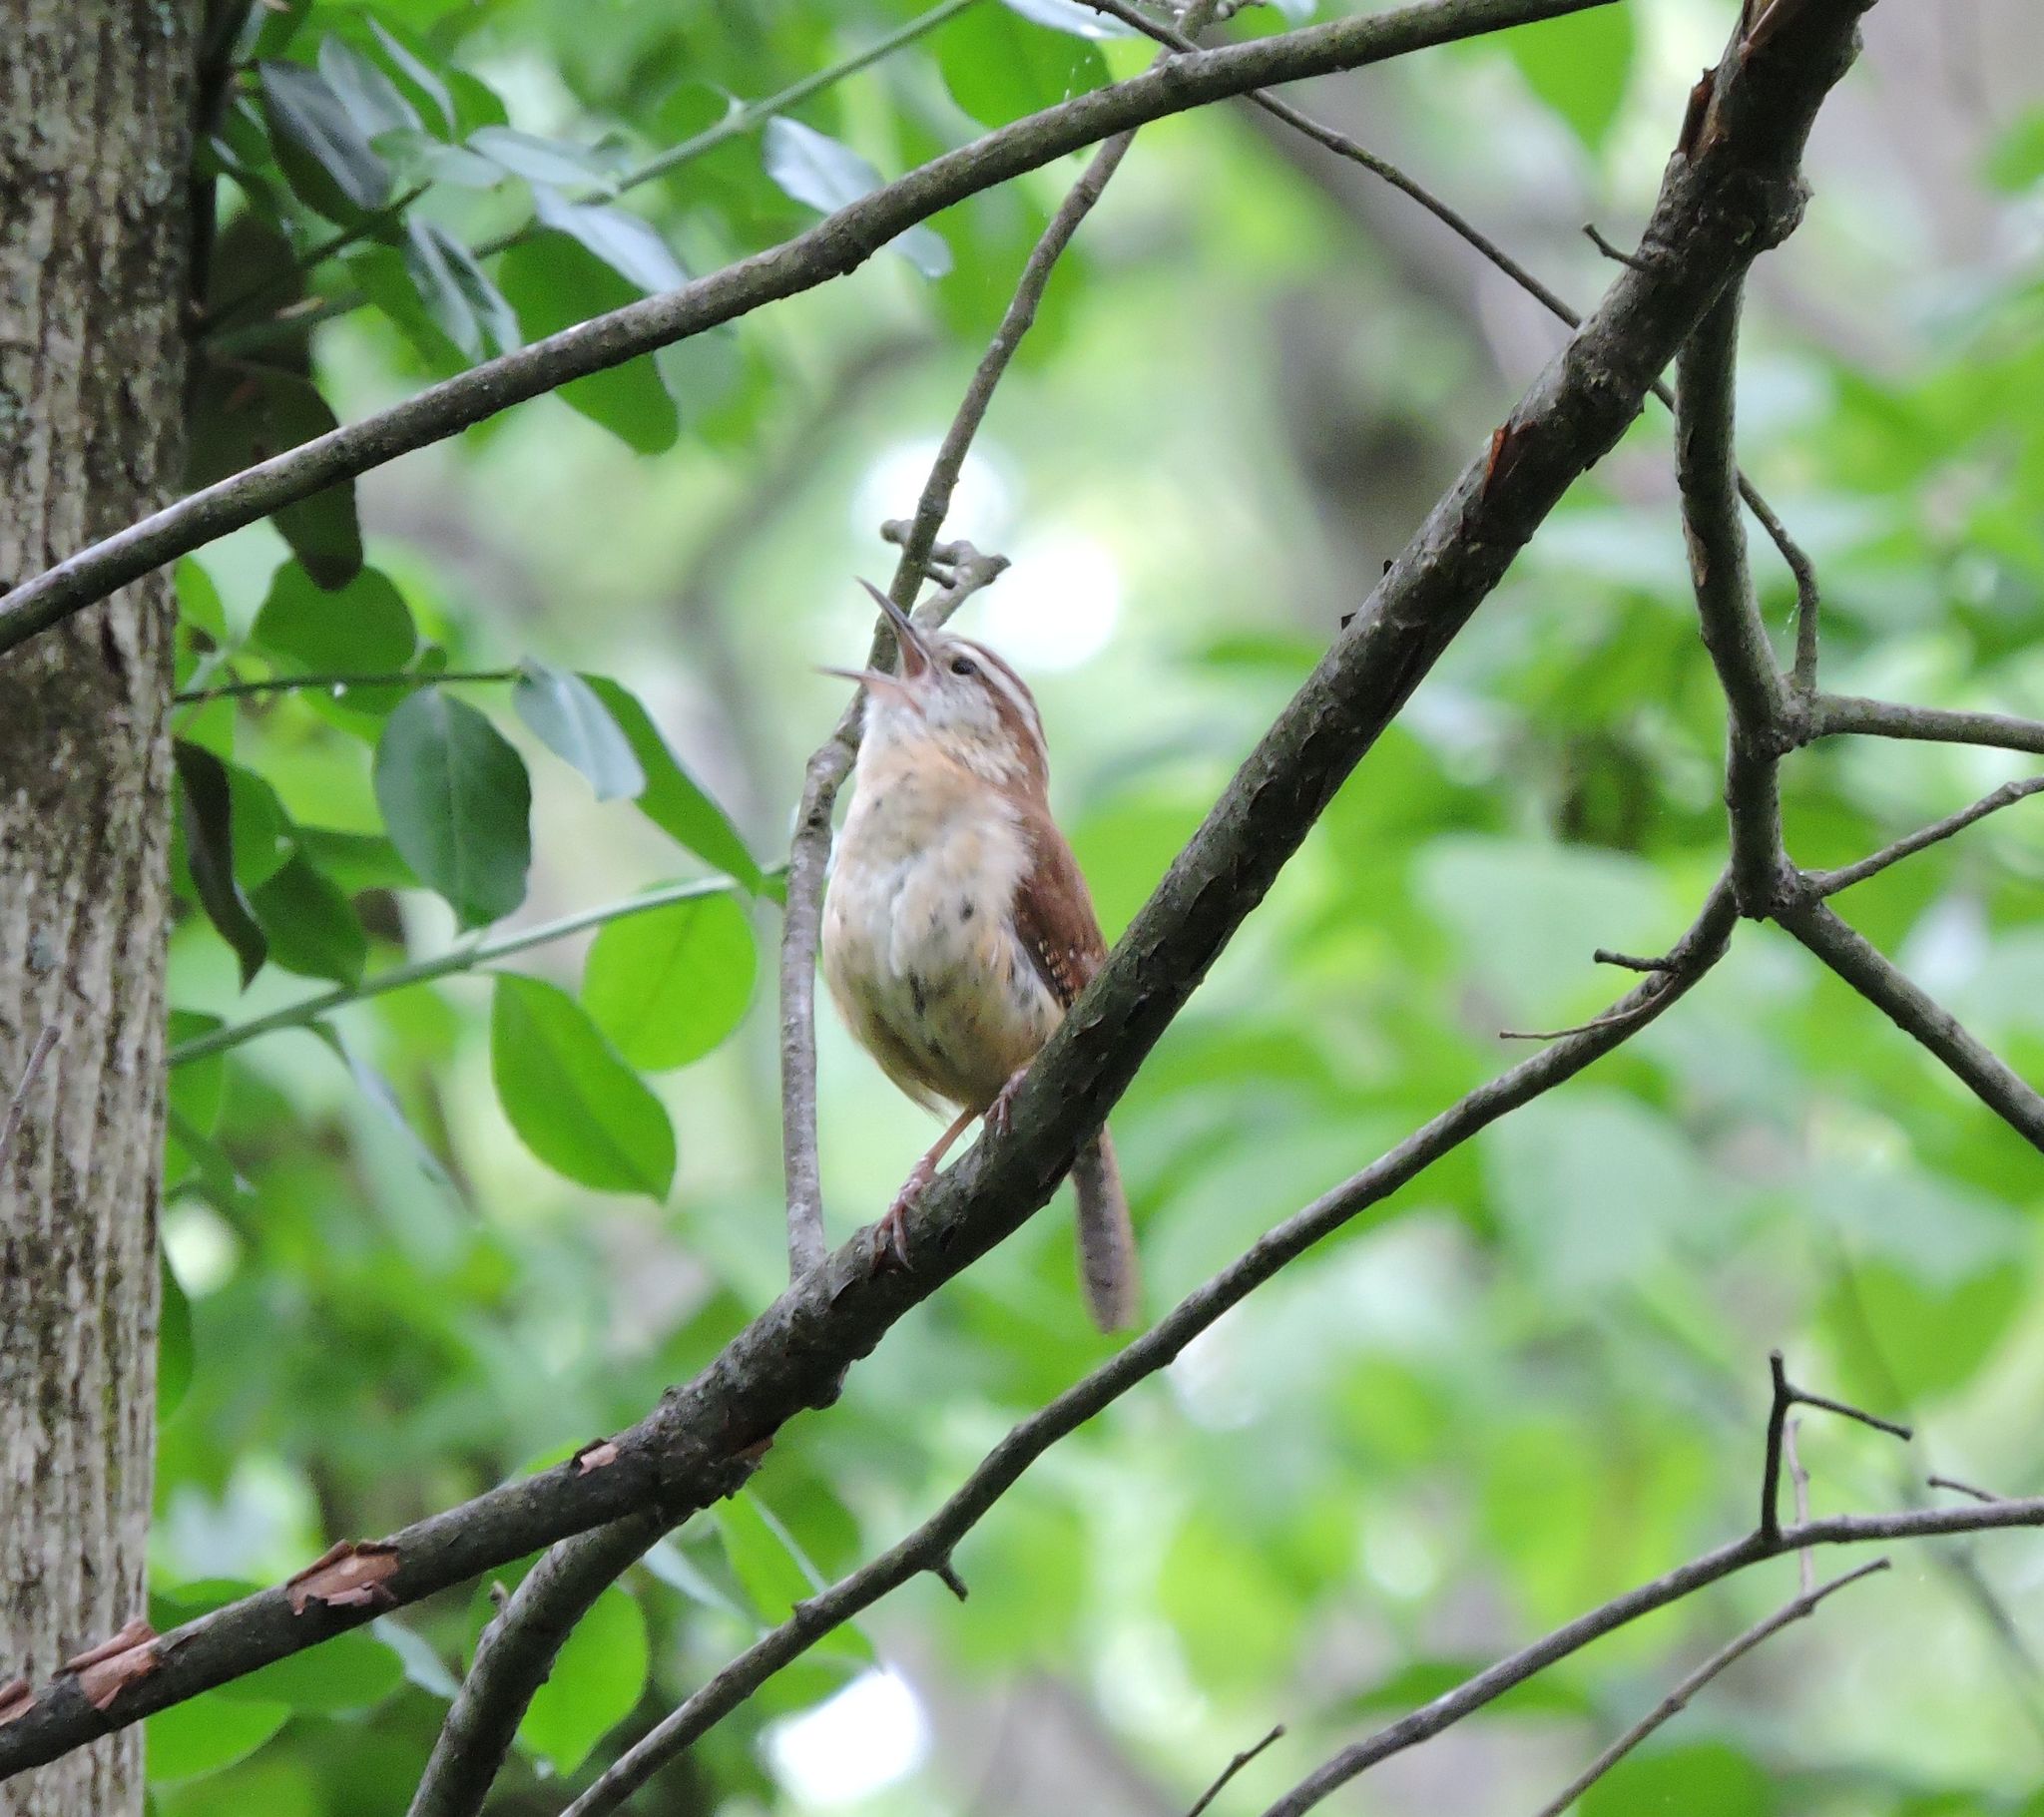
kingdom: Animalia
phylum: Chordata
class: Aves
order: Passeriformes
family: Troglodytidae
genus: Thryothorus
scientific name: Thryothorus ludovicianus
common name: Carolina wren
